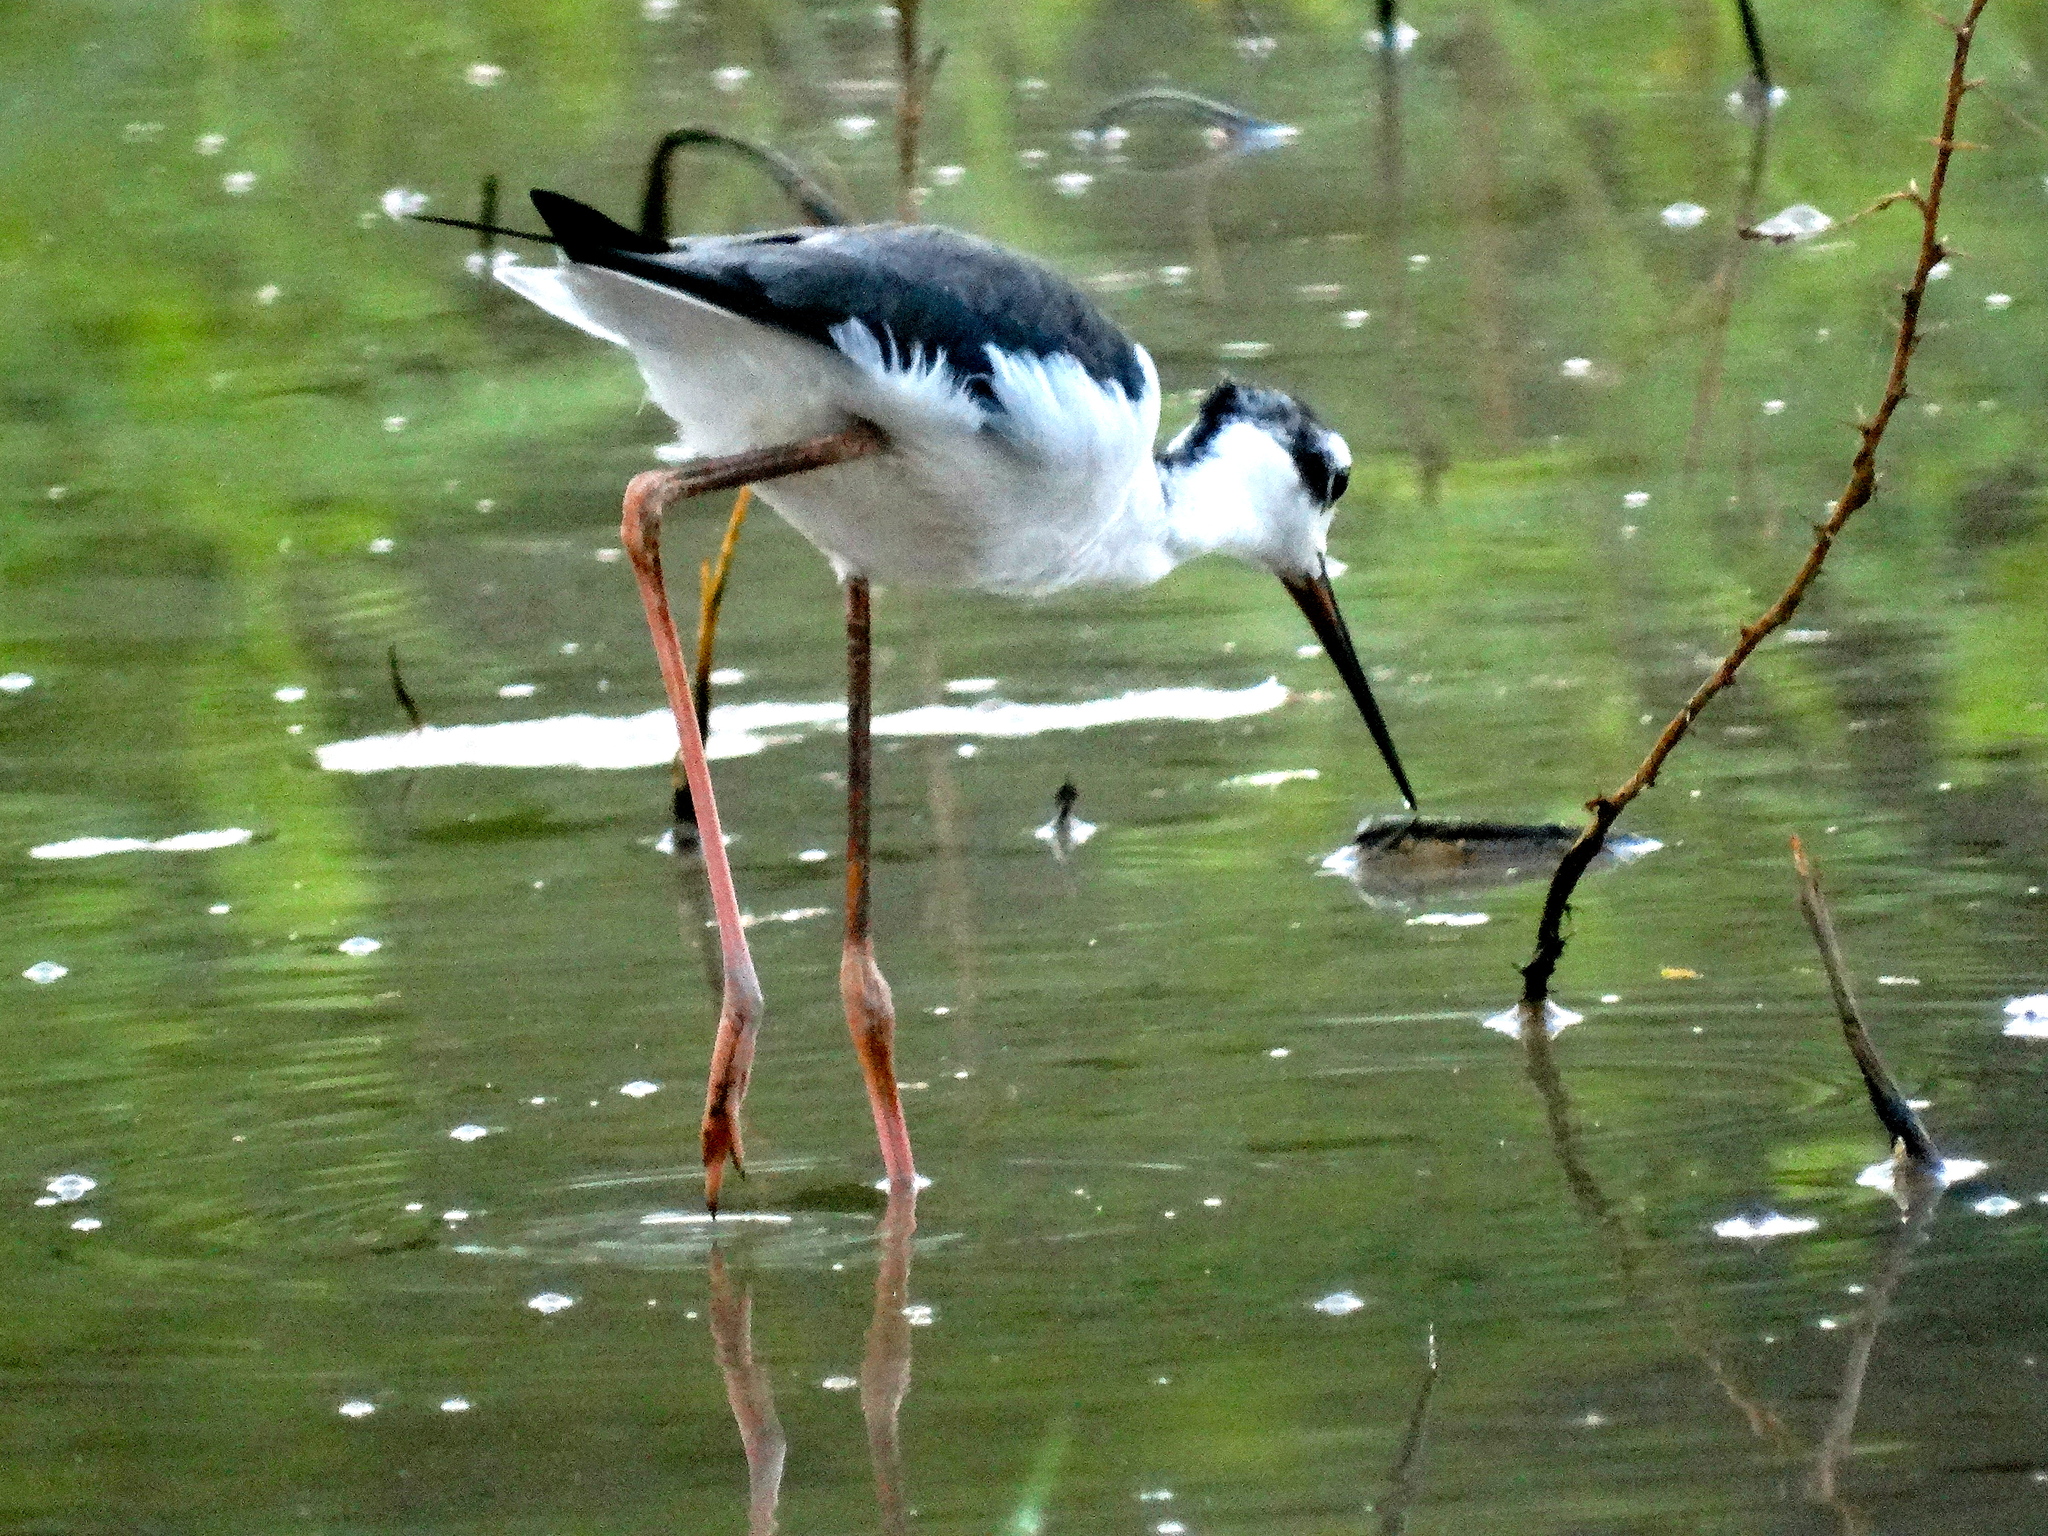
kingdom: Animalia
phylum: Chordata
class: Aves
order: Charadriiformes
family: Recurvirostridae
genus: Himantopus
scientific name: Himantopus mexicanus
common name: Black-necked stilt
